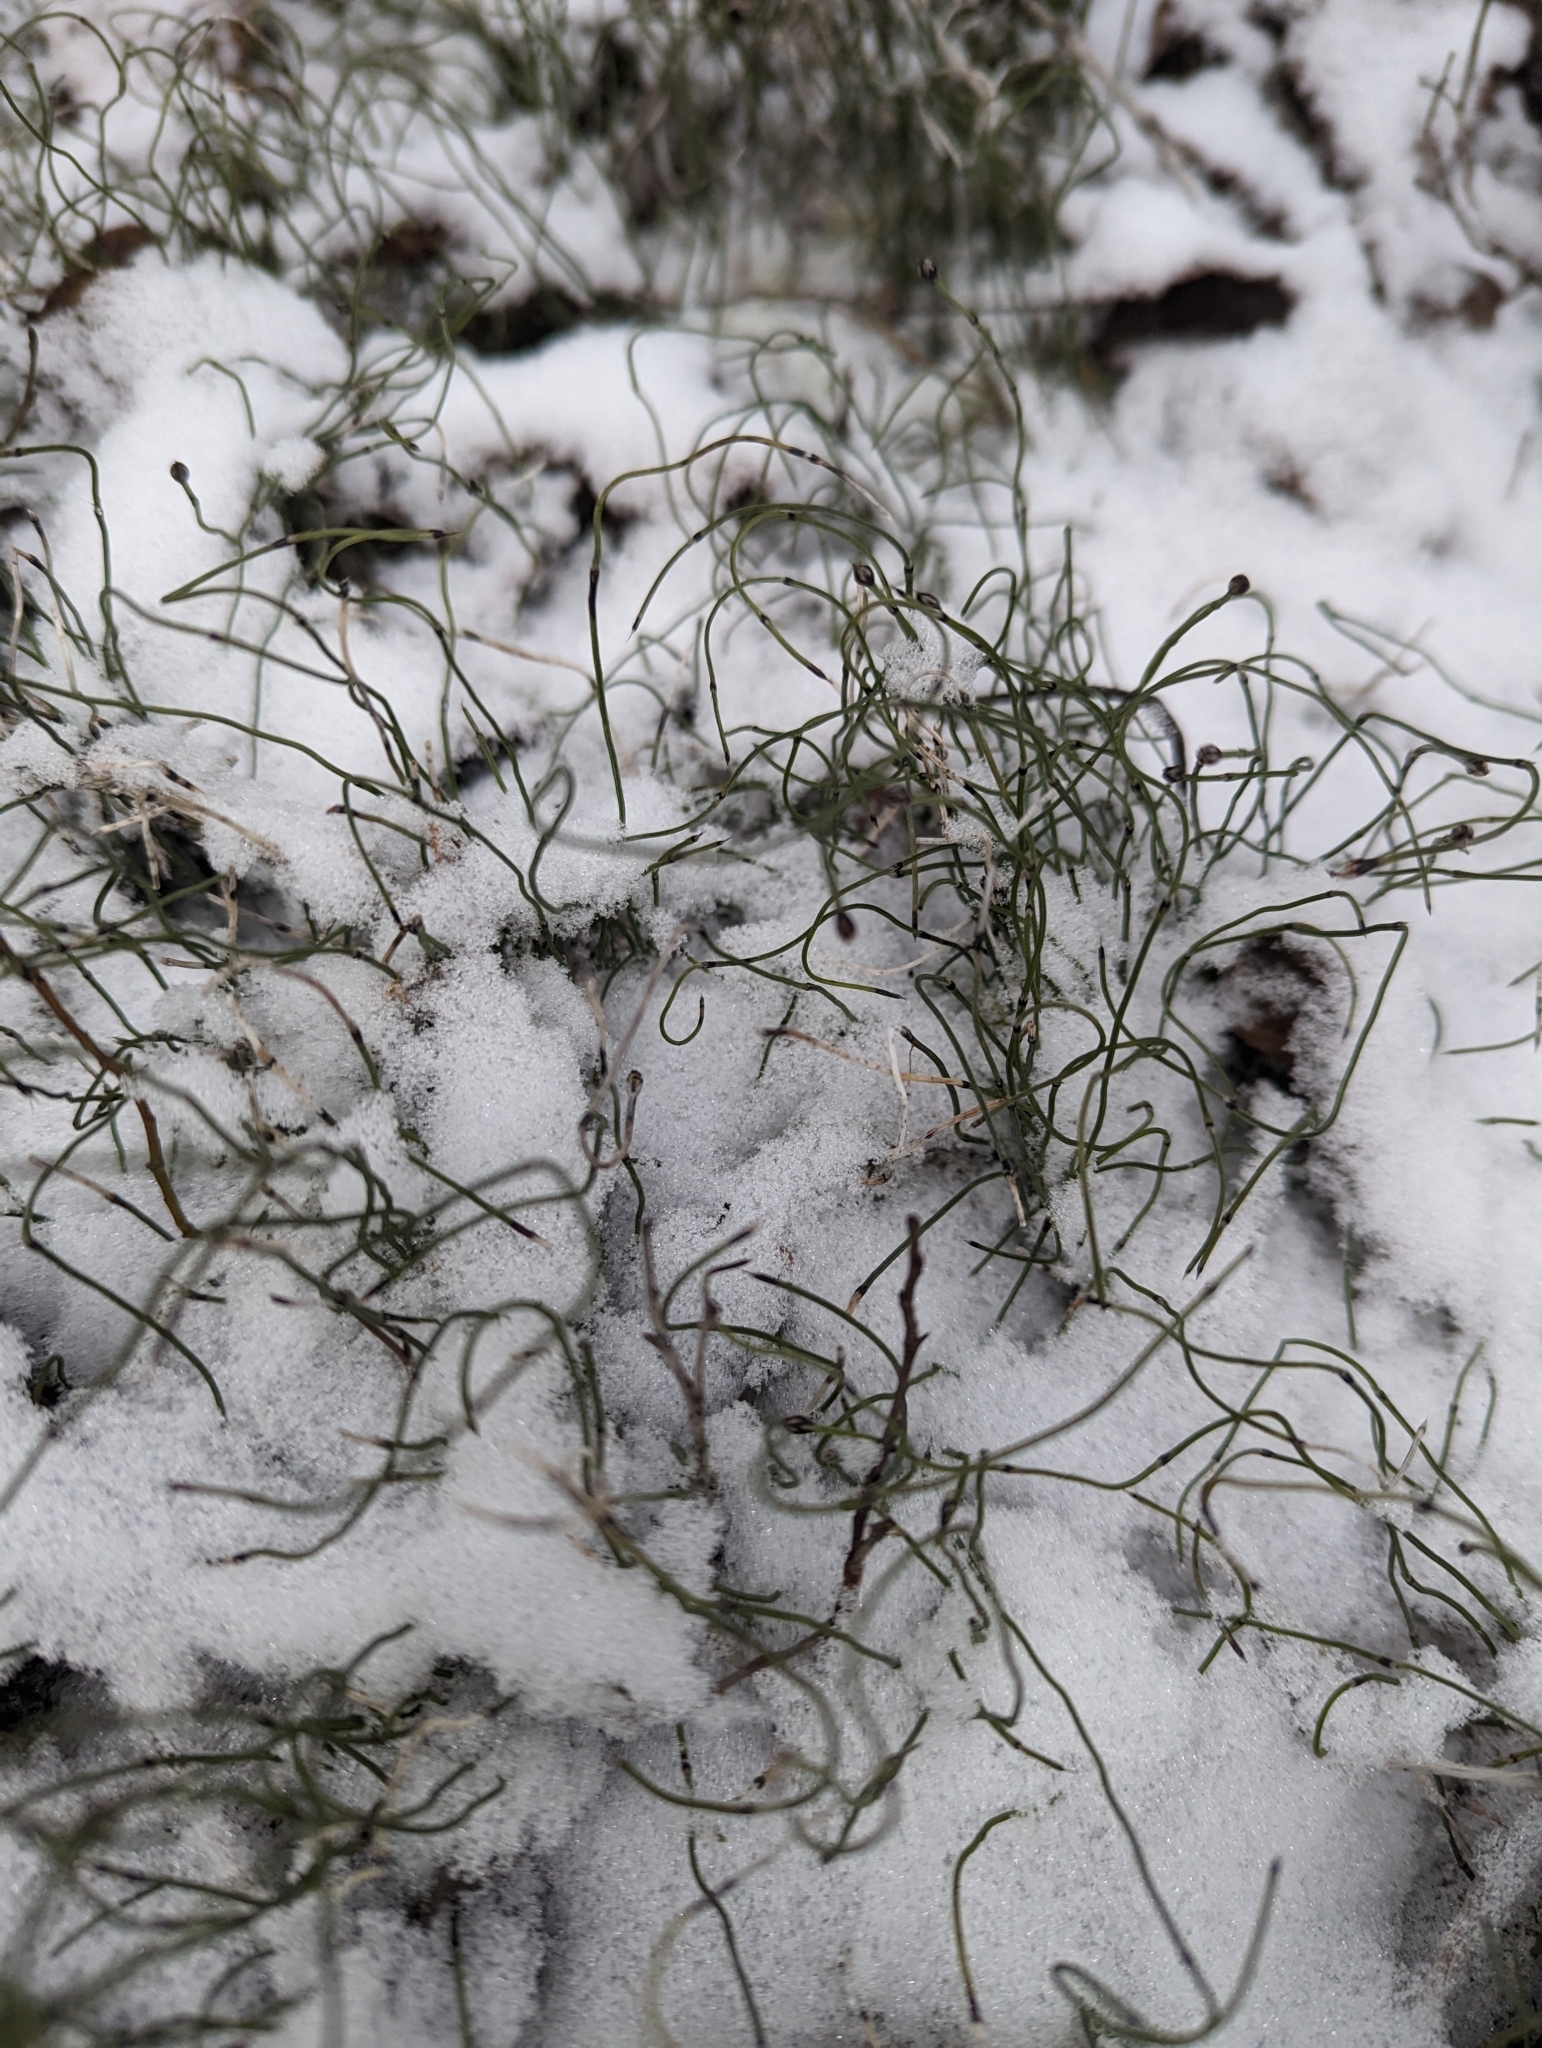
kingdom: Plantae
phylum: Tracheophyta
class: Polypodiopsida
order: Equisetales
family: Equisetaceae
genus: Equisetum
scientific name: Equisetum scirpoides
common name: Delicate horsetail
